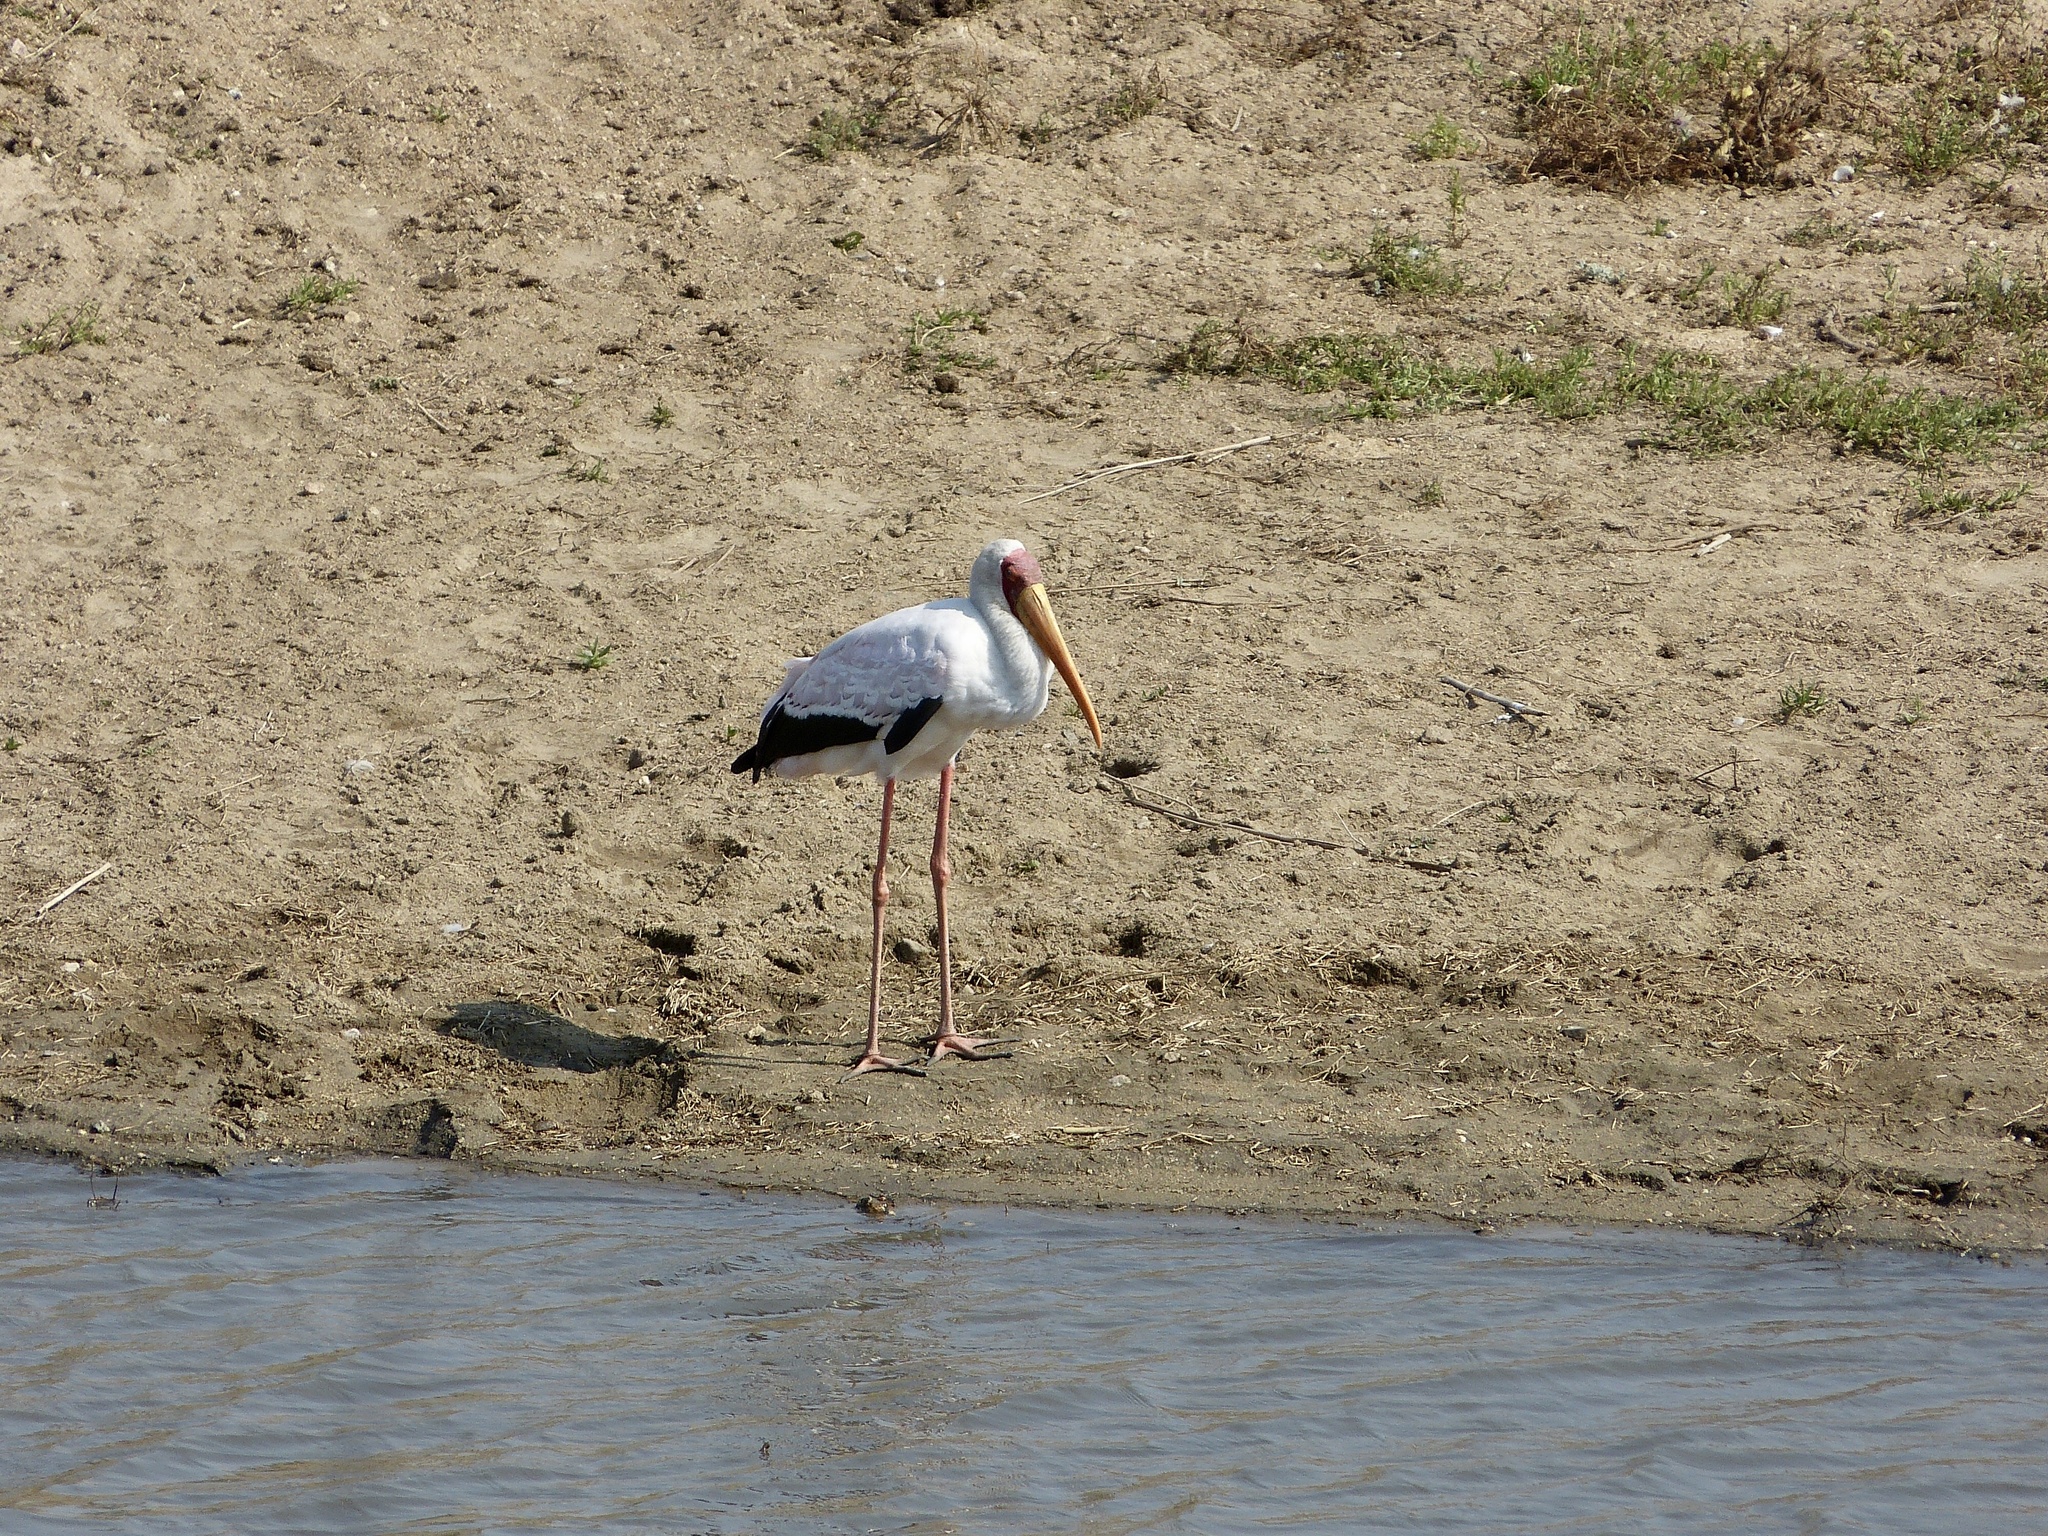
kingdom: Animalia
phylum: Chordata
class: Aves
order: Ciconiiformes
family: Ciconiidae
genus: Mycteria
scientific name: Mycteria ibis
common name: Yellow-billed stork
